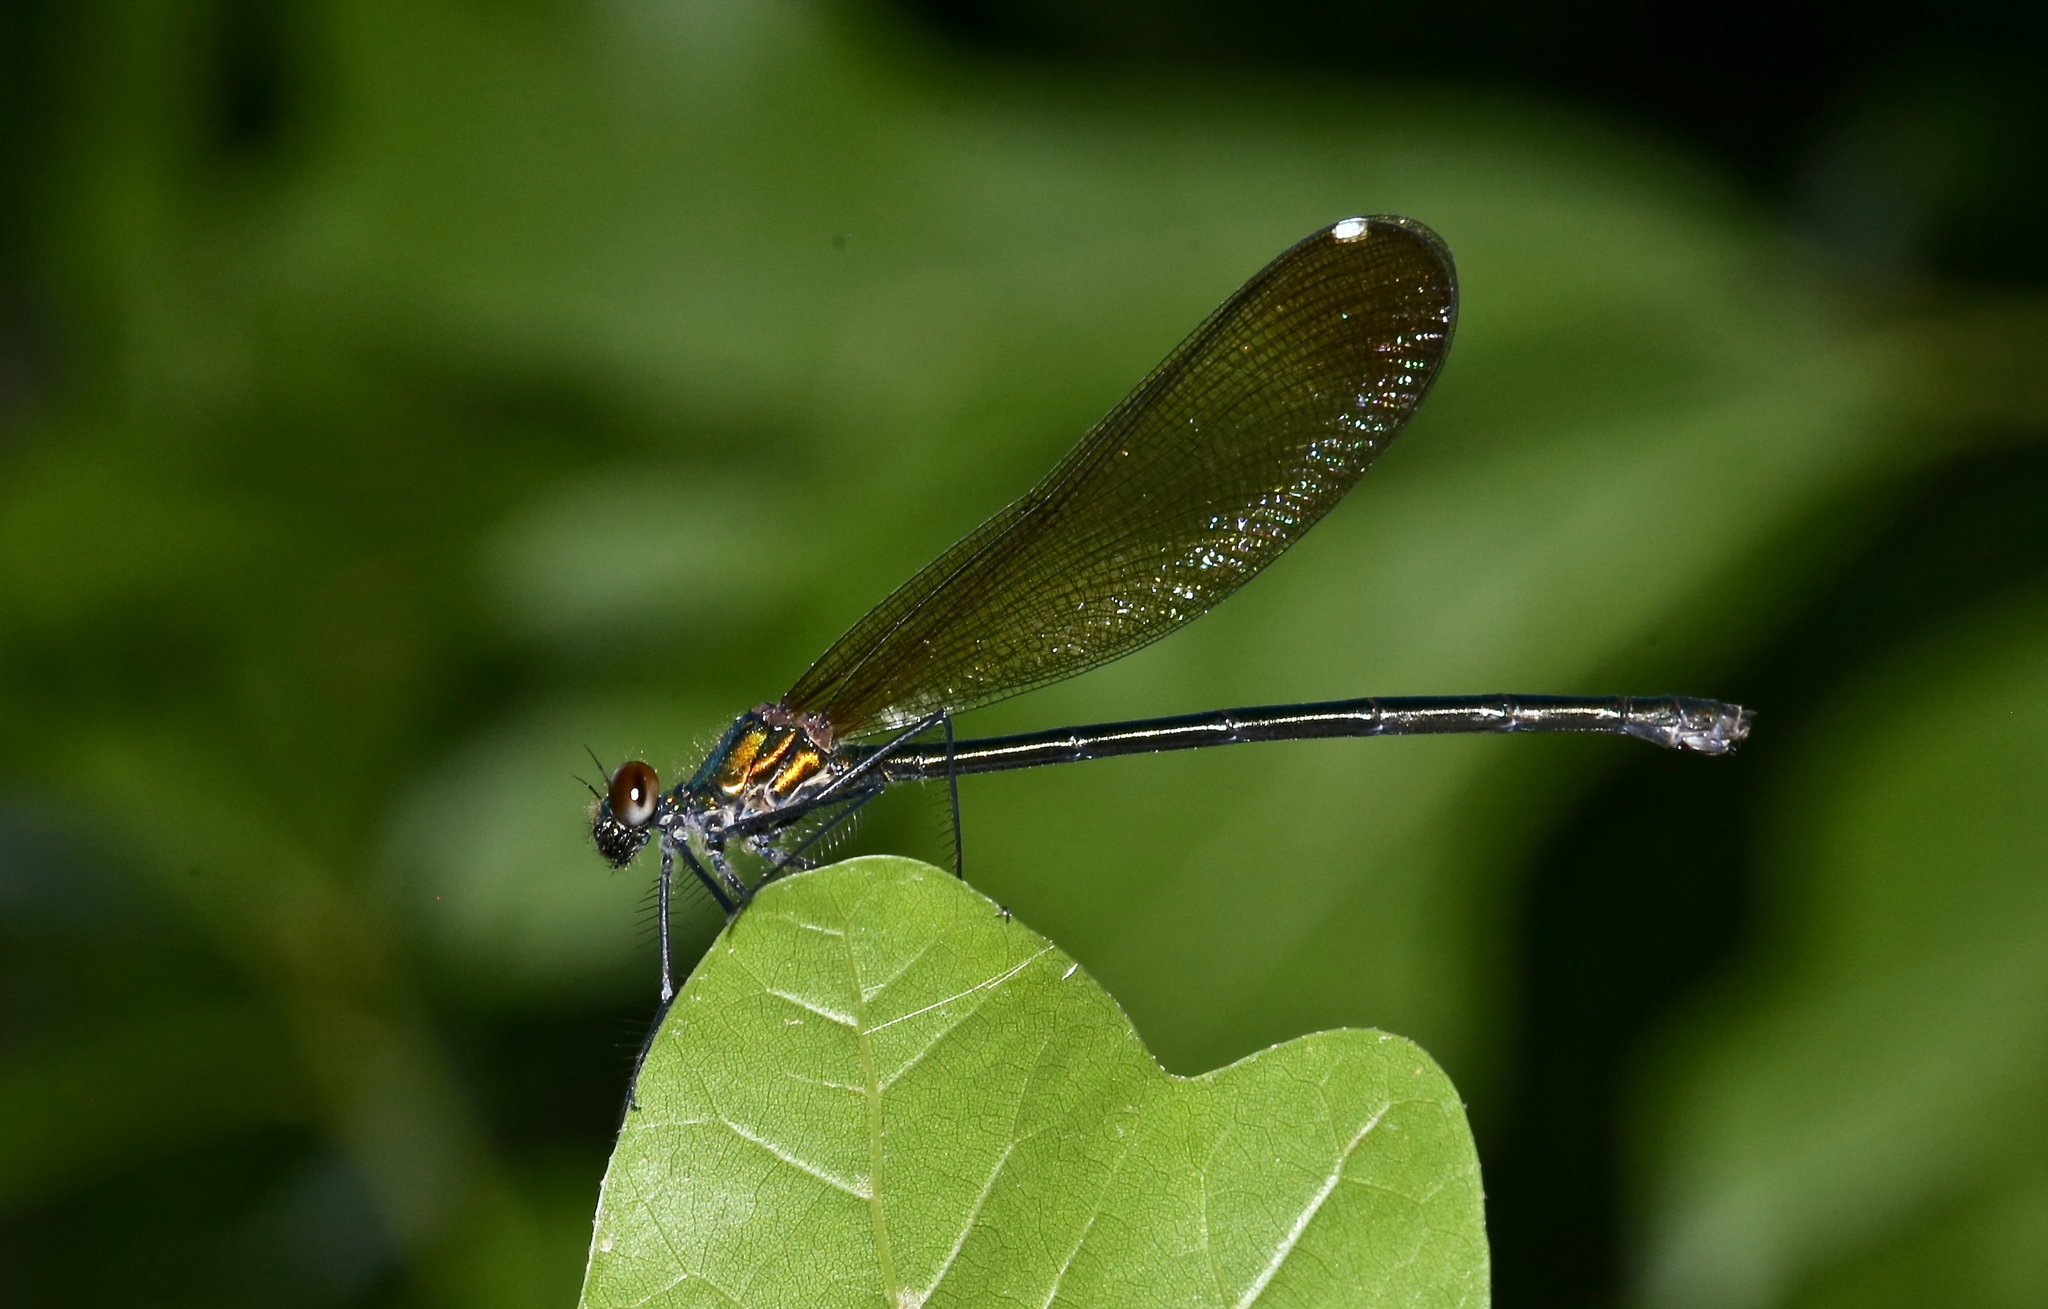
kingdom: Animalia
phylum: Arthropoda
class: Insecta
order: Odonata
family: Calopterygidae
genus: Calopteryx
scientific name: Calopteryx dimidiata
